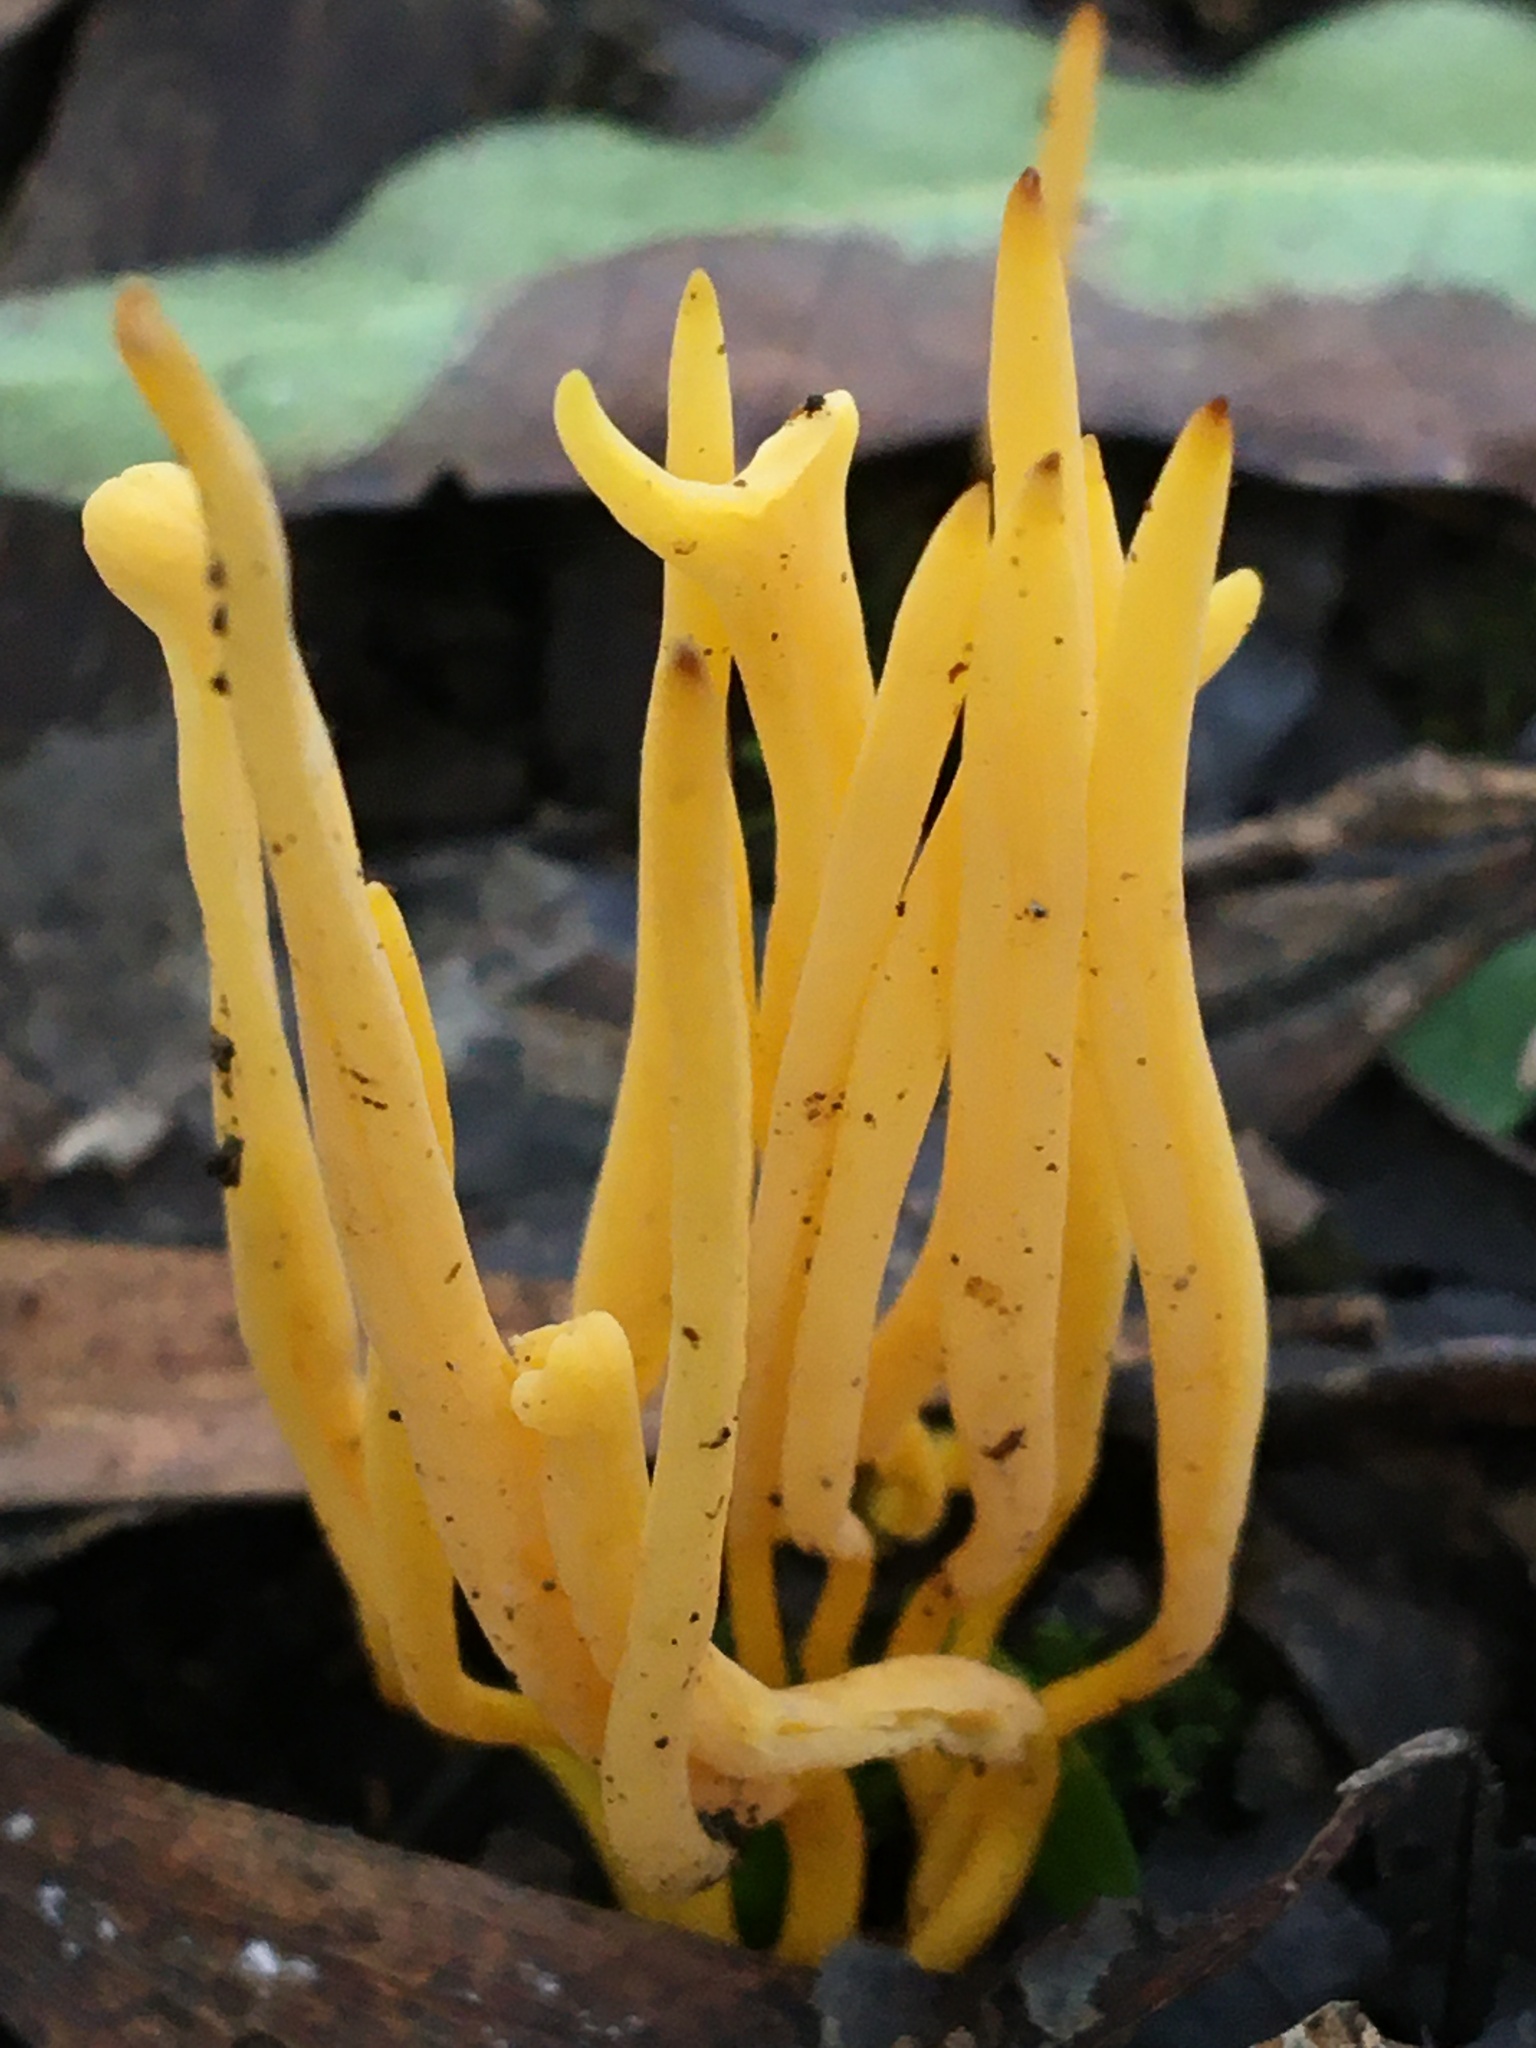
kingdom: Fungi
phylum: Basidiomycota
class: Agaricomycetes
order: Agaricales
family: Clavariaceae
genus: Clavulinopsis
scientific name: Clavulinopsis fusiformis
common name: Golden spindles
